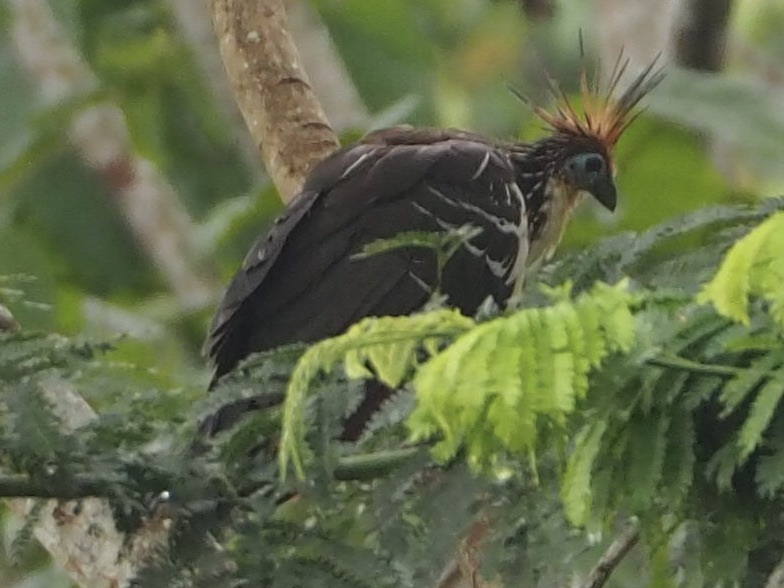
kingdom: Animalia
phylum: Chordata
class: Aves
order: Opisthocomiformes
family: Opisthocomidae
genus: Opisthocomus
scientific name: Opisthocomus hoazin
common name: Hoatzin
